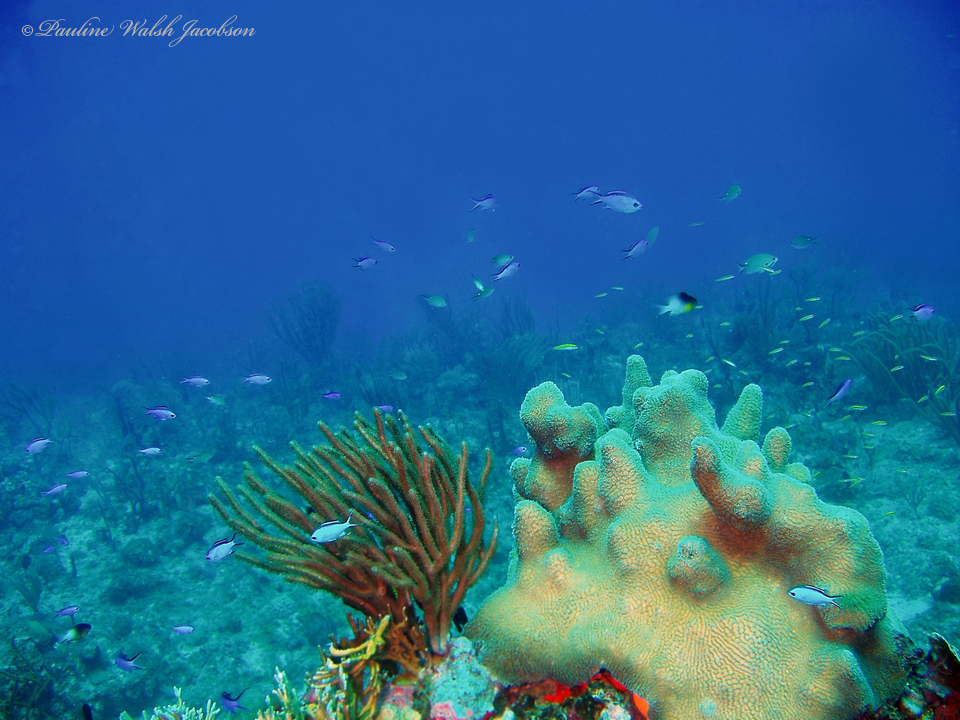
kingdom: Animalia
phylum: Chordata
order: Perciformes
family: Pomacentridae
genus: Chromis
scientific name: Chromis cyanea
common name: Blue chromis
